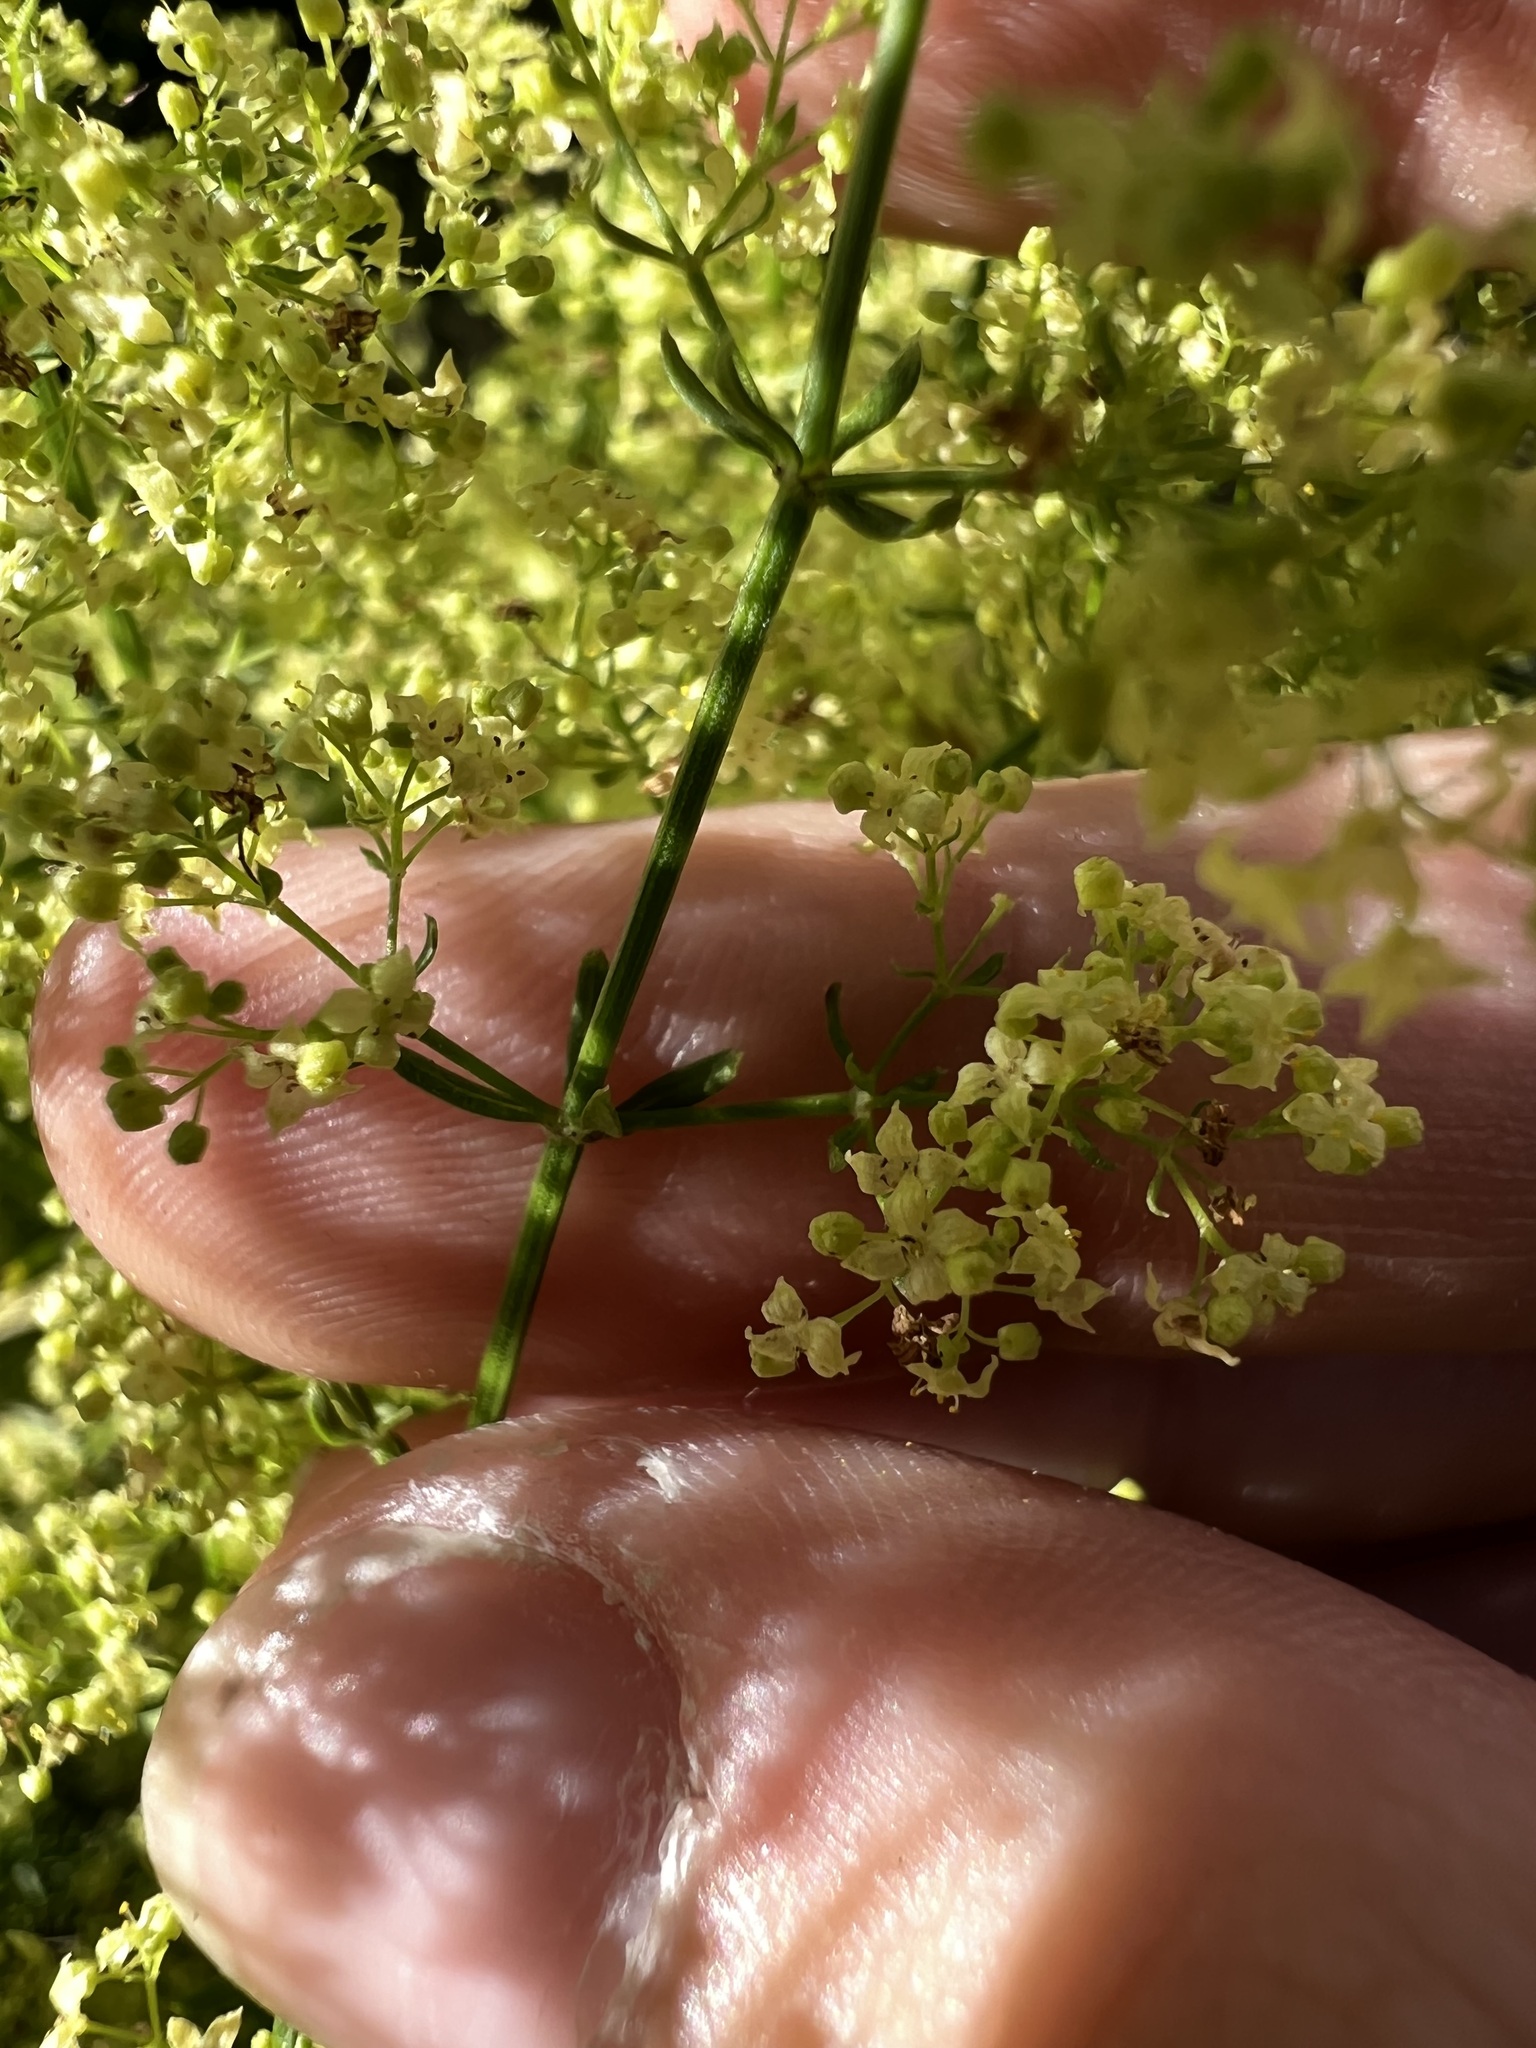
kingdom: Plantae
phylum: Tracheophyta
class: Magnoliopsida
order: Gentianales
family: Rubiaceae
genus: Galium
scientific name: Galium angustifolium
